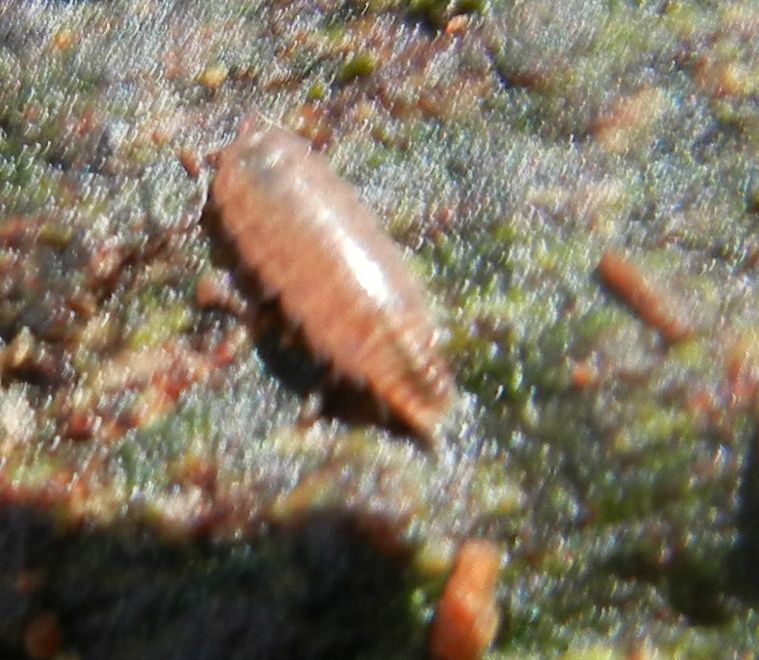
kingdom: Animalia
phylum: Arthropoda
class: Malacostraca
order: Isopoda
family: Trichoniscidae
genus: Trichoniscus
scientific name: Trichoniscus
